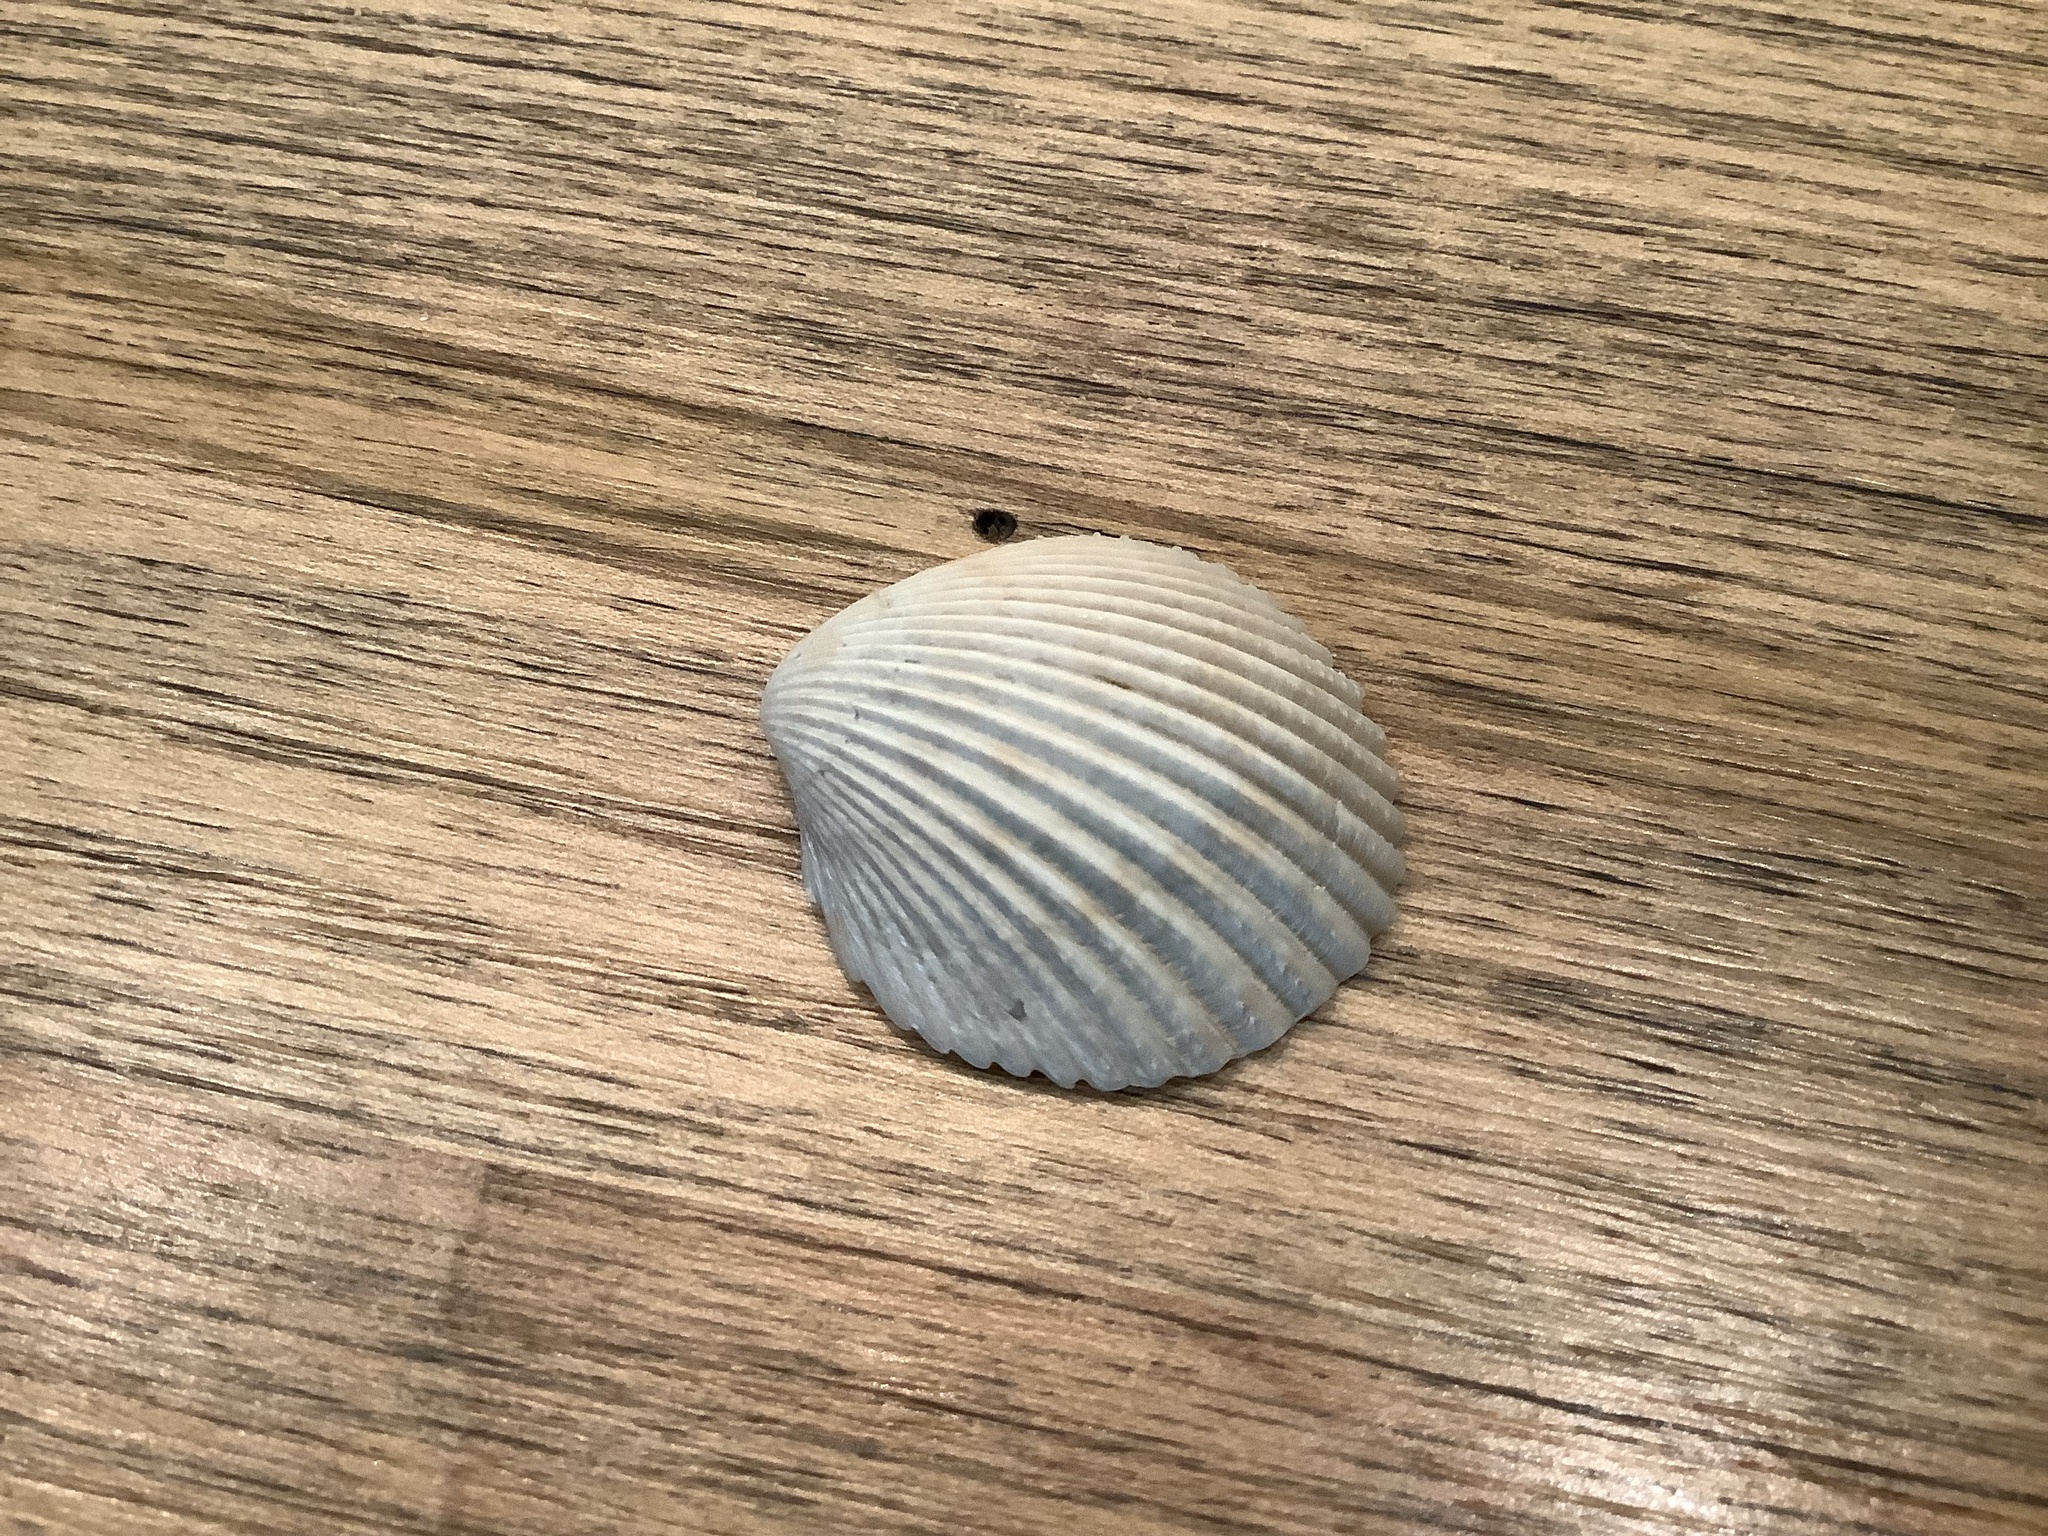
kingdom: Animalia
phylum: Mollusca
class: Bivalvia
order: Cardiida
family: Cardiidae
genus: Dallocardia
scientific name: Dallocardia muricata
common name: Yellow pricklycockle
